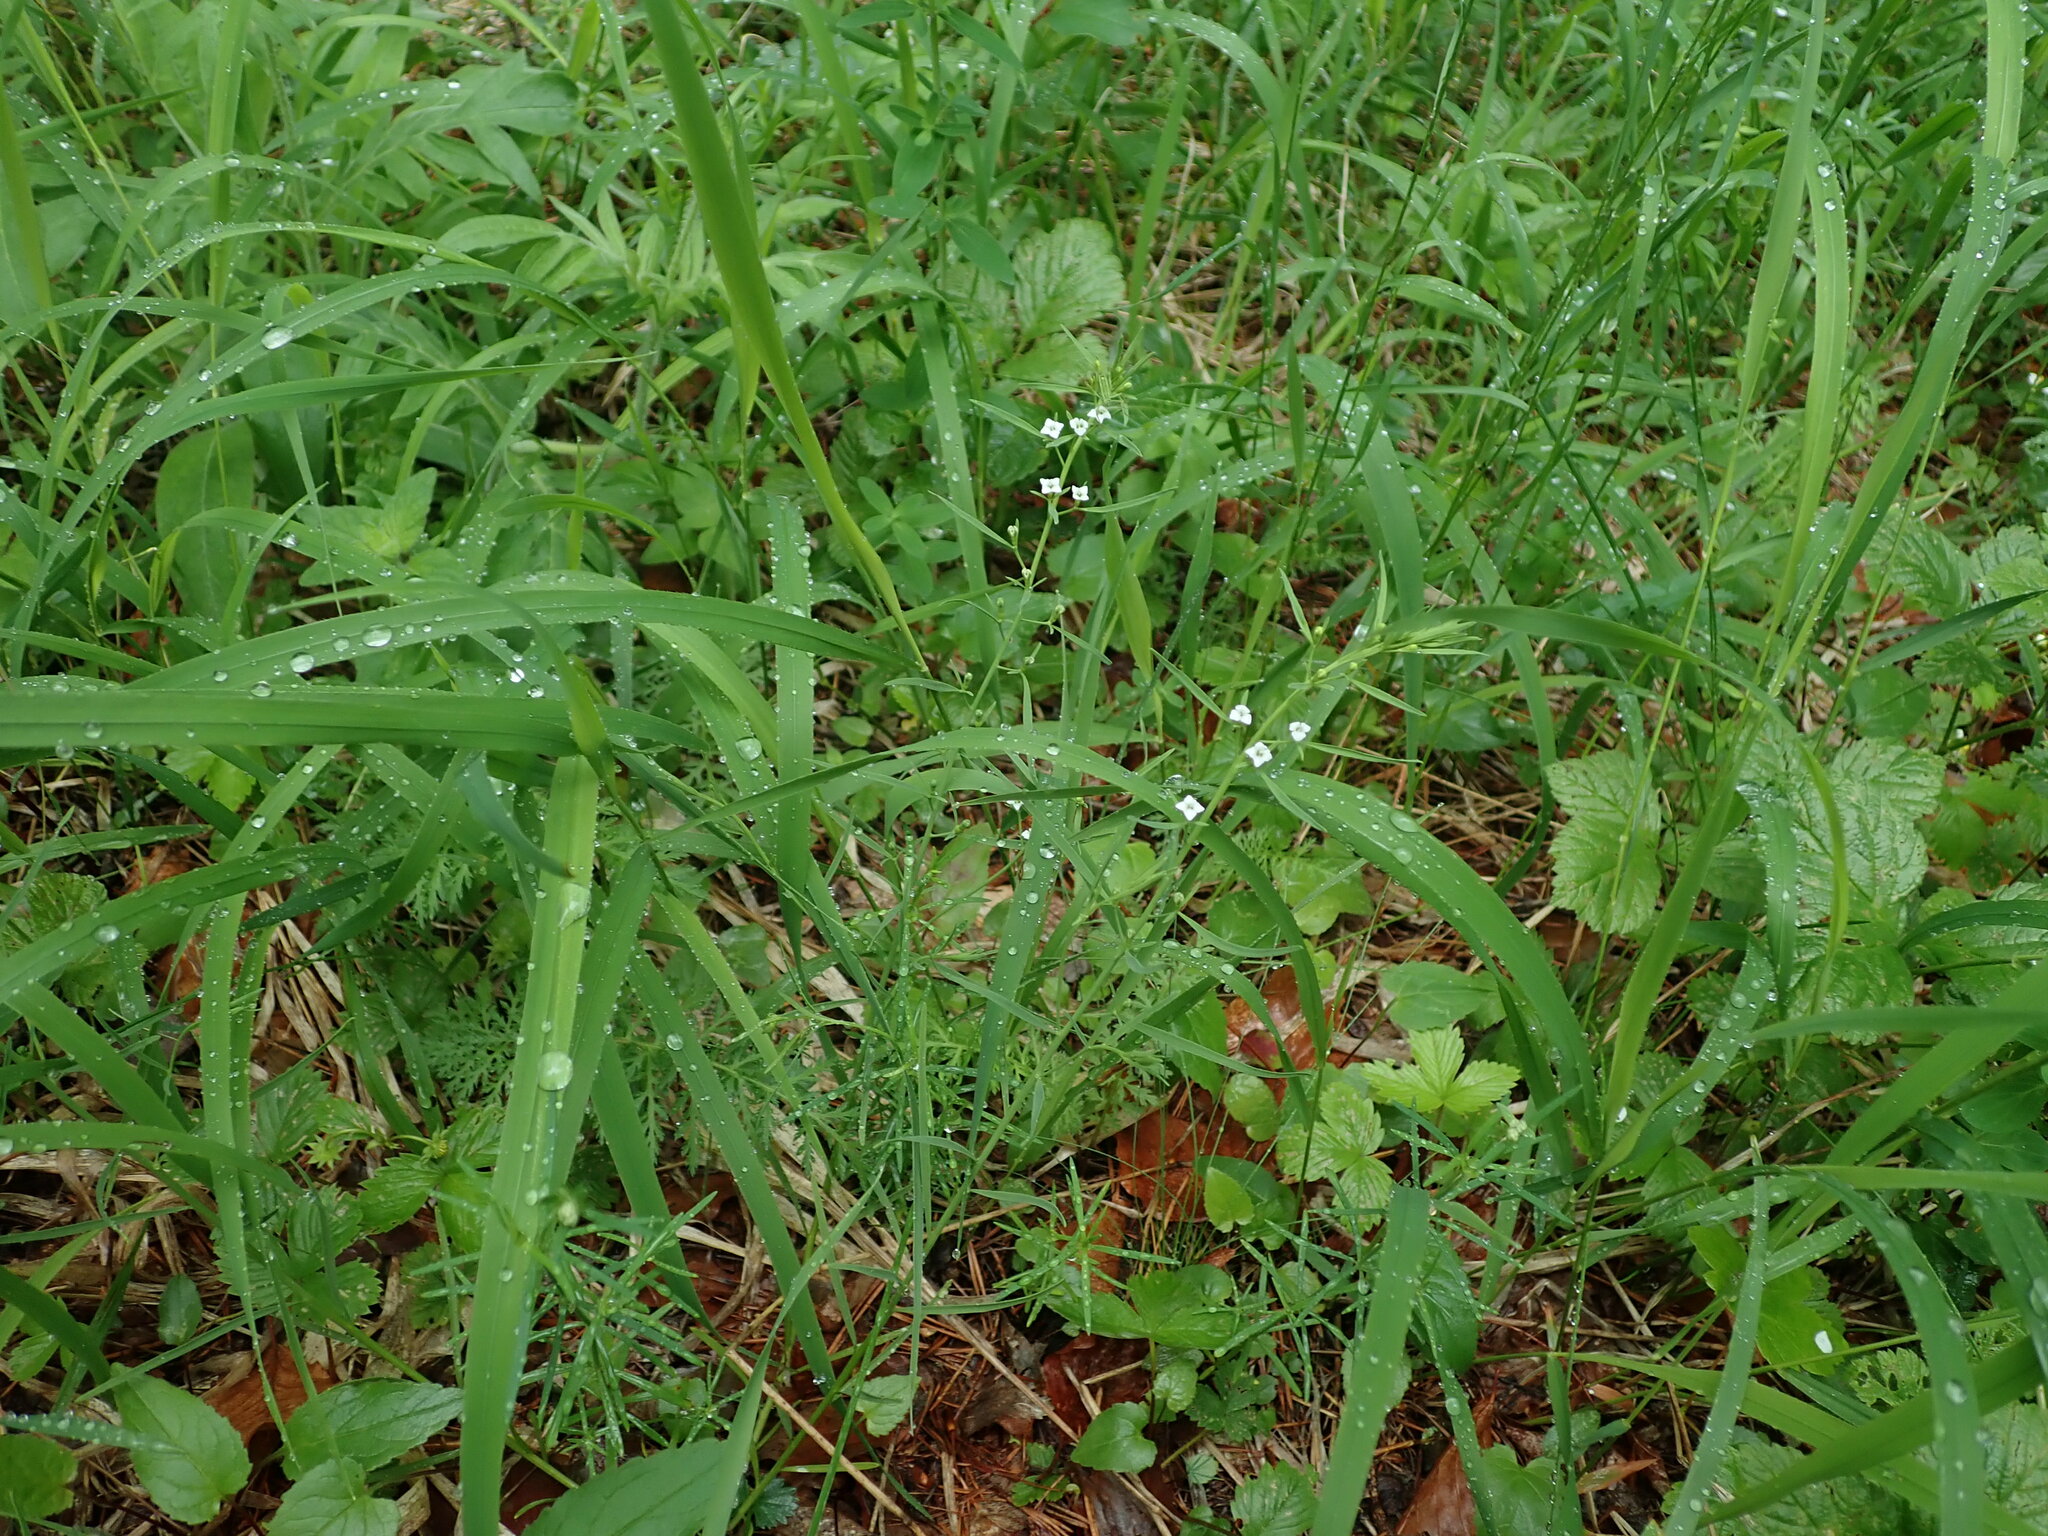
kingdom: Plantae
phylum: Tracheophyta
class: Magnoliopsida
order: Santalales
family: Thesiaceae
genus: Thesium
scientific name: Thesium alpinum
